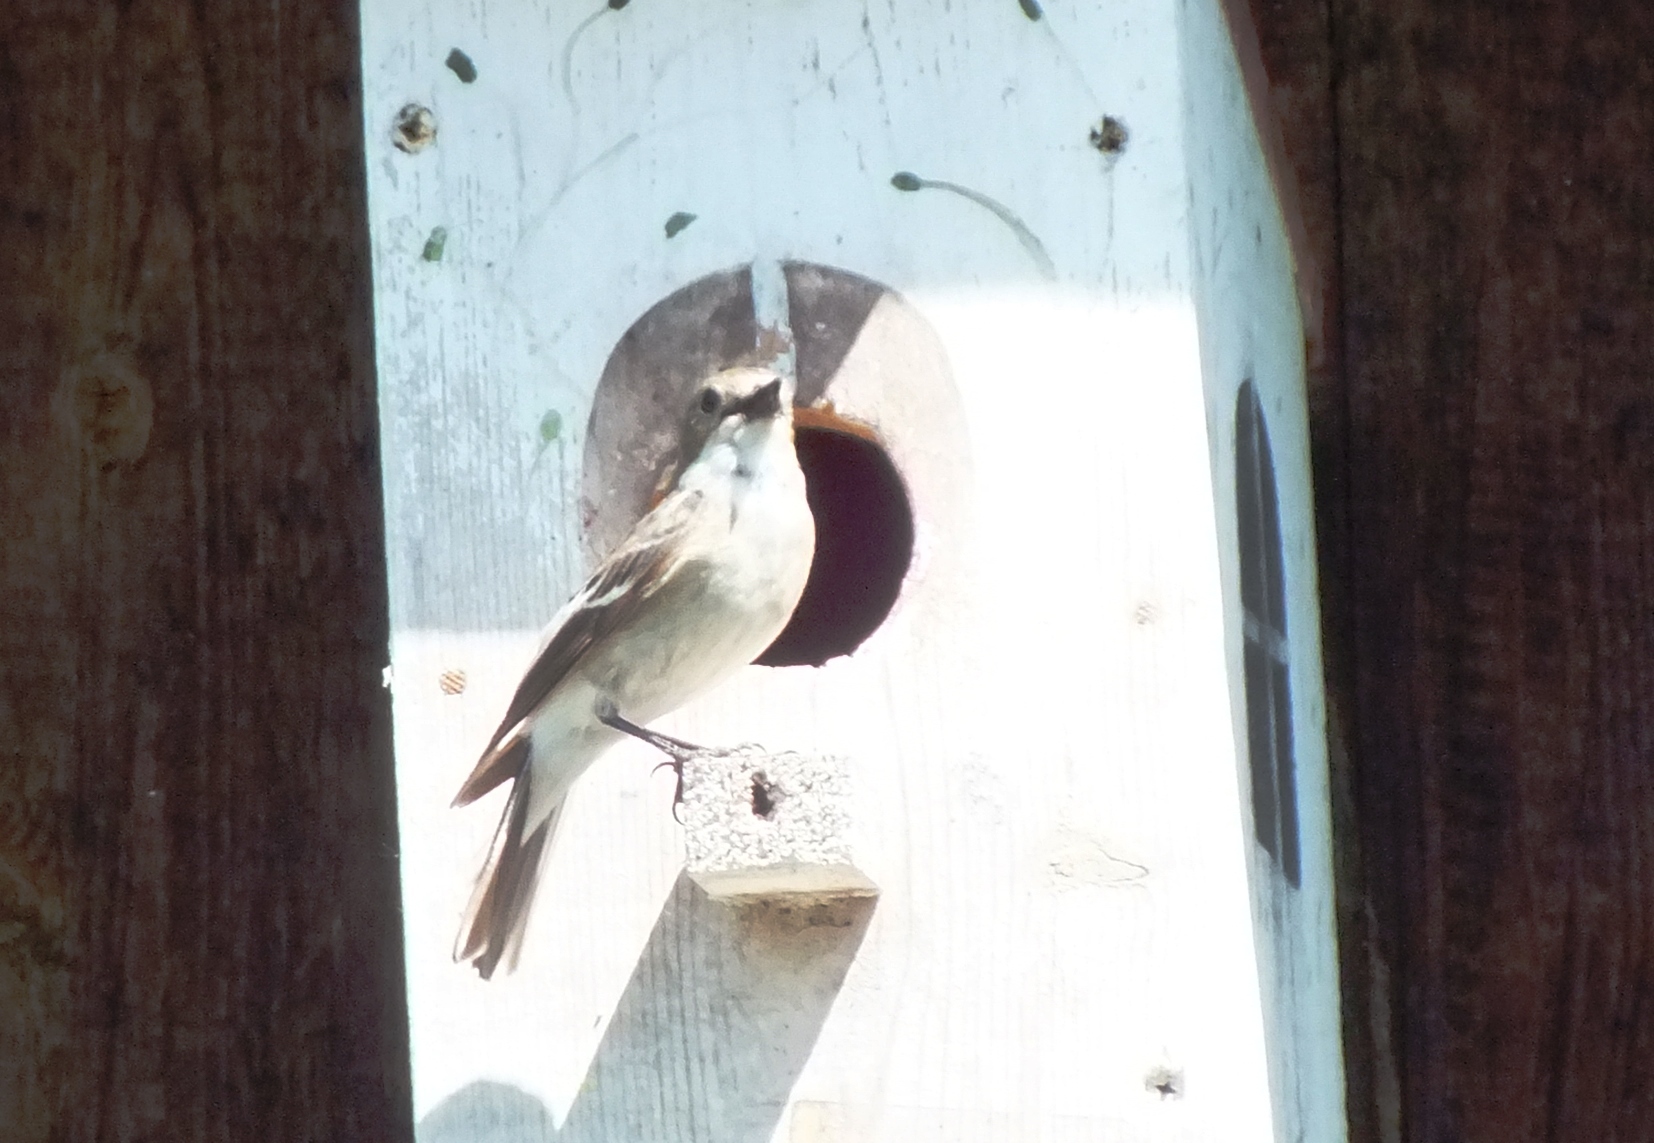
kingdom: Animalia
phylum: Chordata
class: Aves
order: Passeriformes
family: Muscicapidae
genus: Ficedula
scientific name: Ficedula hypoleuca
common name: European pied flycatcher
